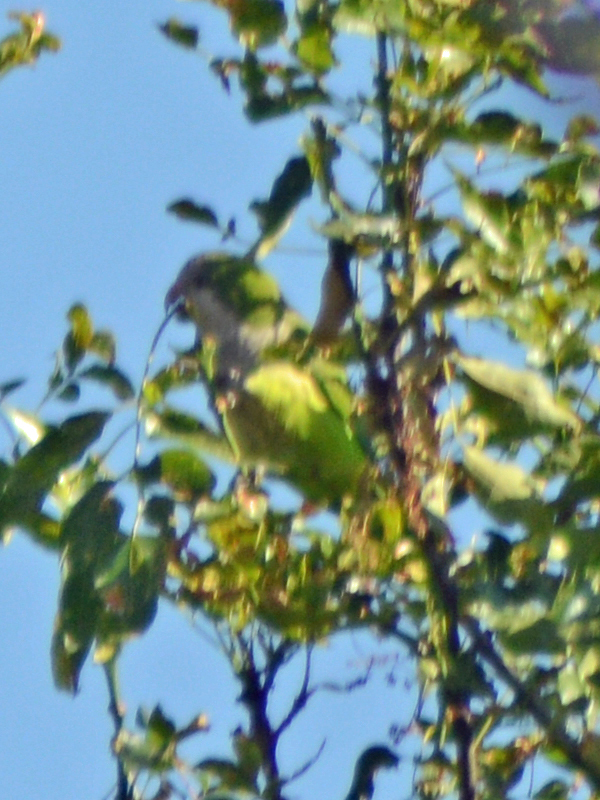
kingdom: Animalia
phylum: Chordata
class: Aves
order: Psittaciformes
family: Psittacidae
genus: Myiopsitta
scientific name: Myiopsitta monachus
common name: Monk parakeet
